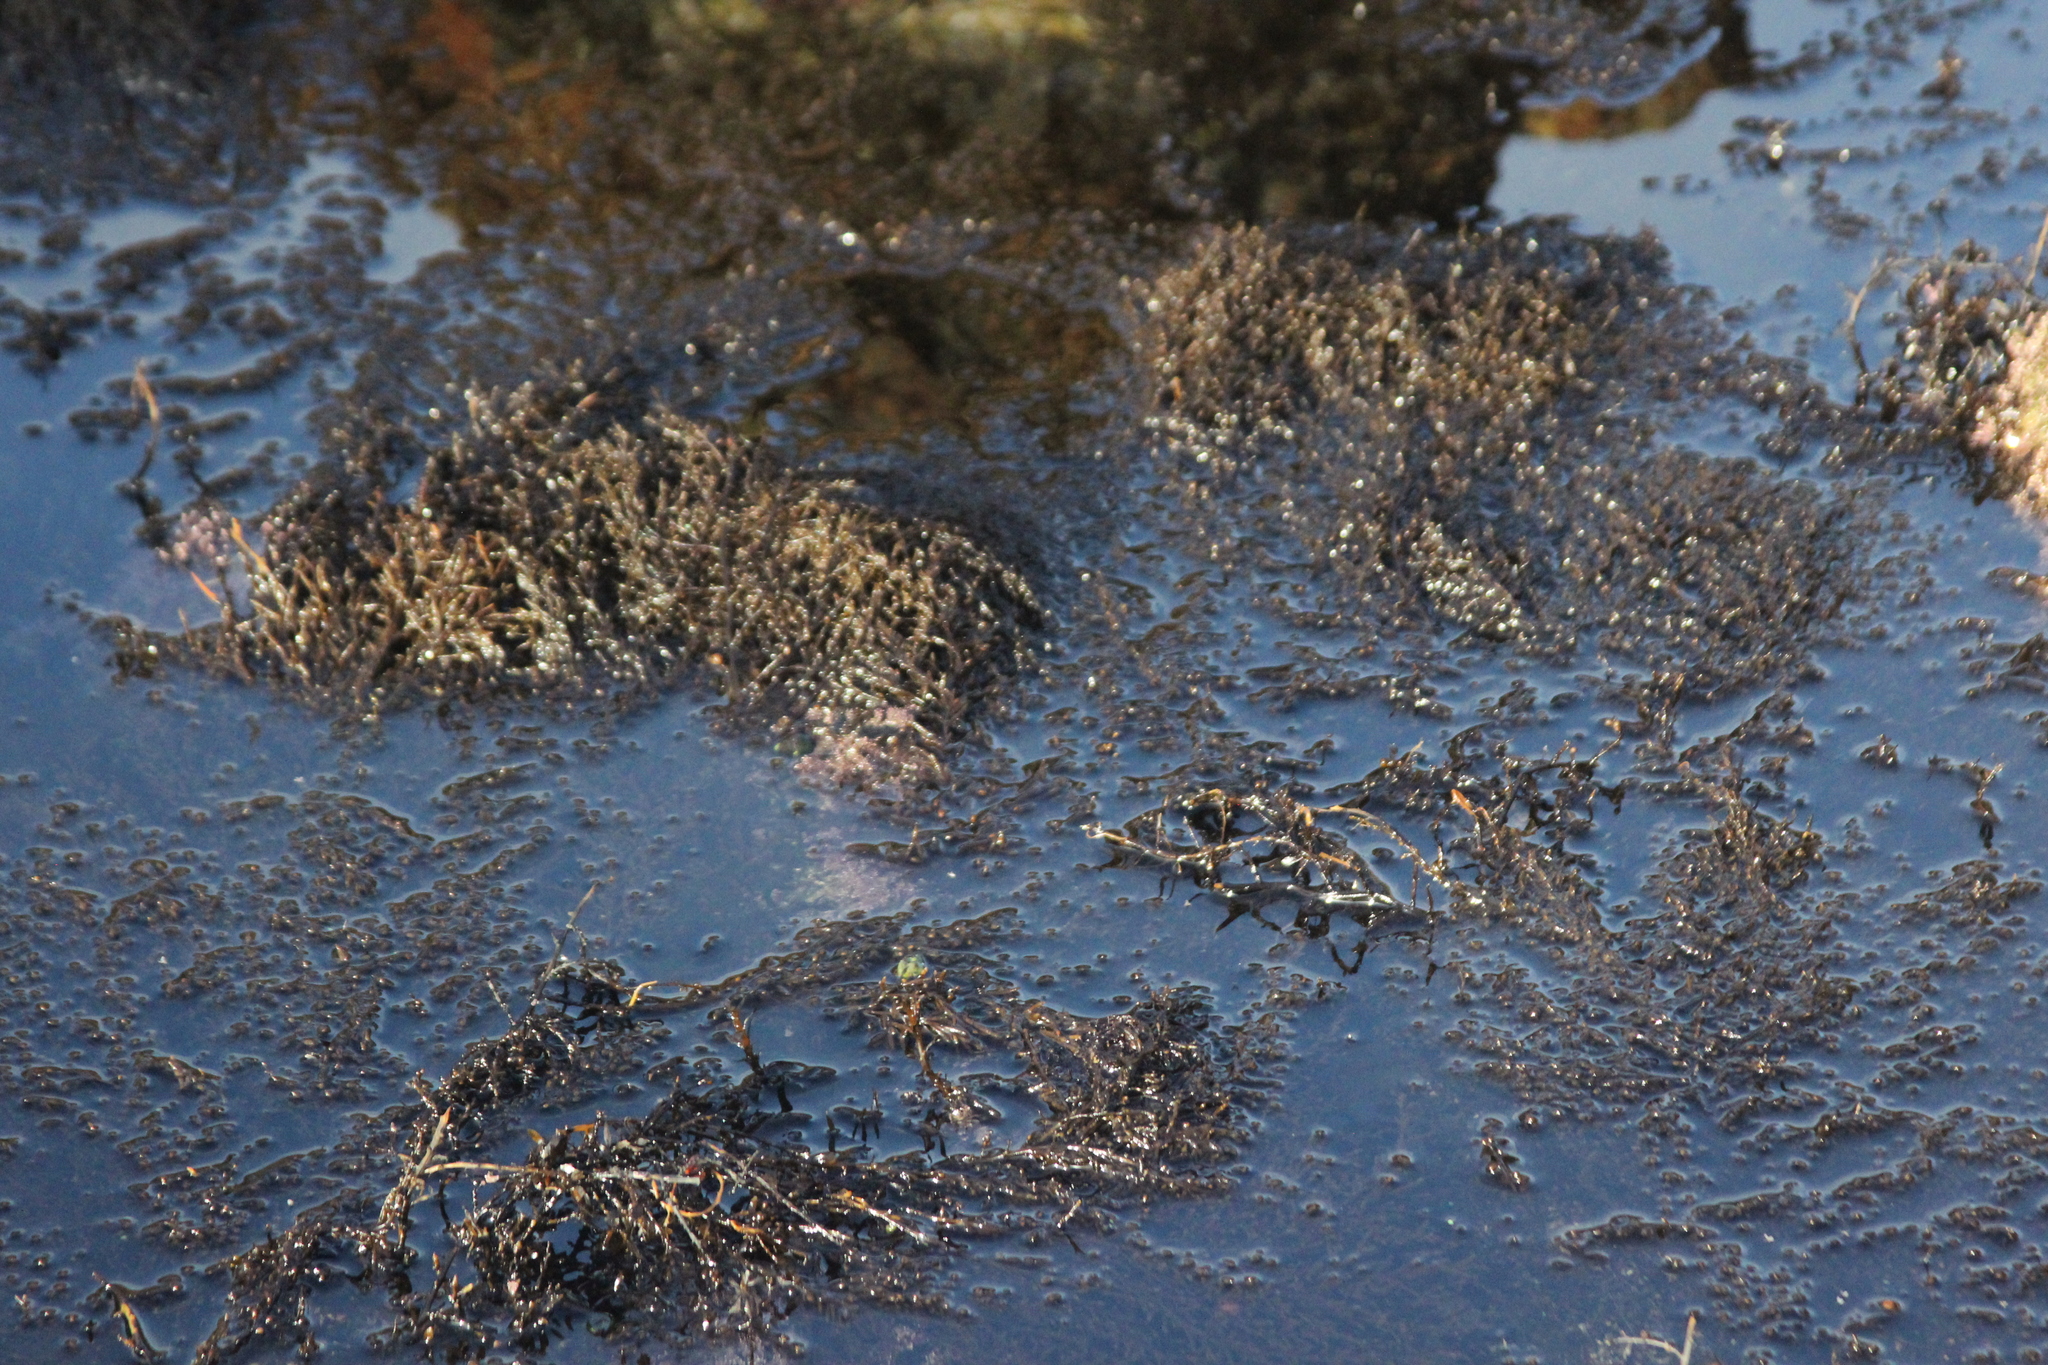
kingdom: Chromista
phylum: Ochrophyta
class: Phaeophyceae
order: Fucales
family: Sargassaceae
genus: Sargassum
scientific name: Sargassum muticum
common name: Japweed
